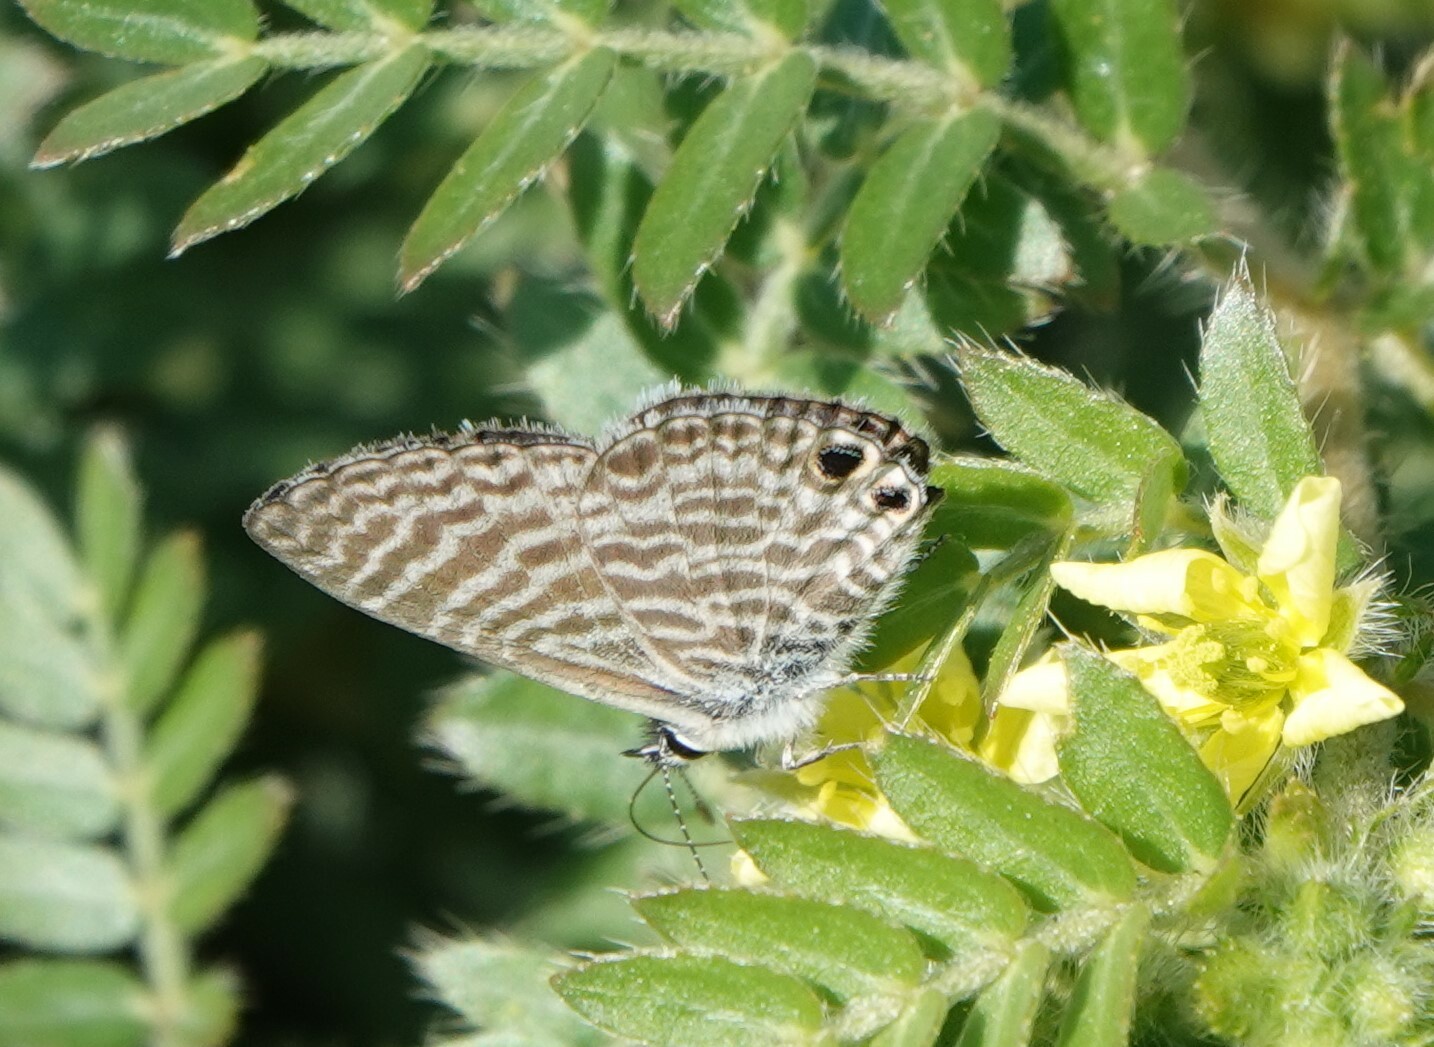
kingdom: Animalia
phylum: Arthropoda
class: Insecta
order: Lepidoptera
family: Lycaenidae
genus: Leptotes
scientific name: Leptotes marina
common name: Marine blue
